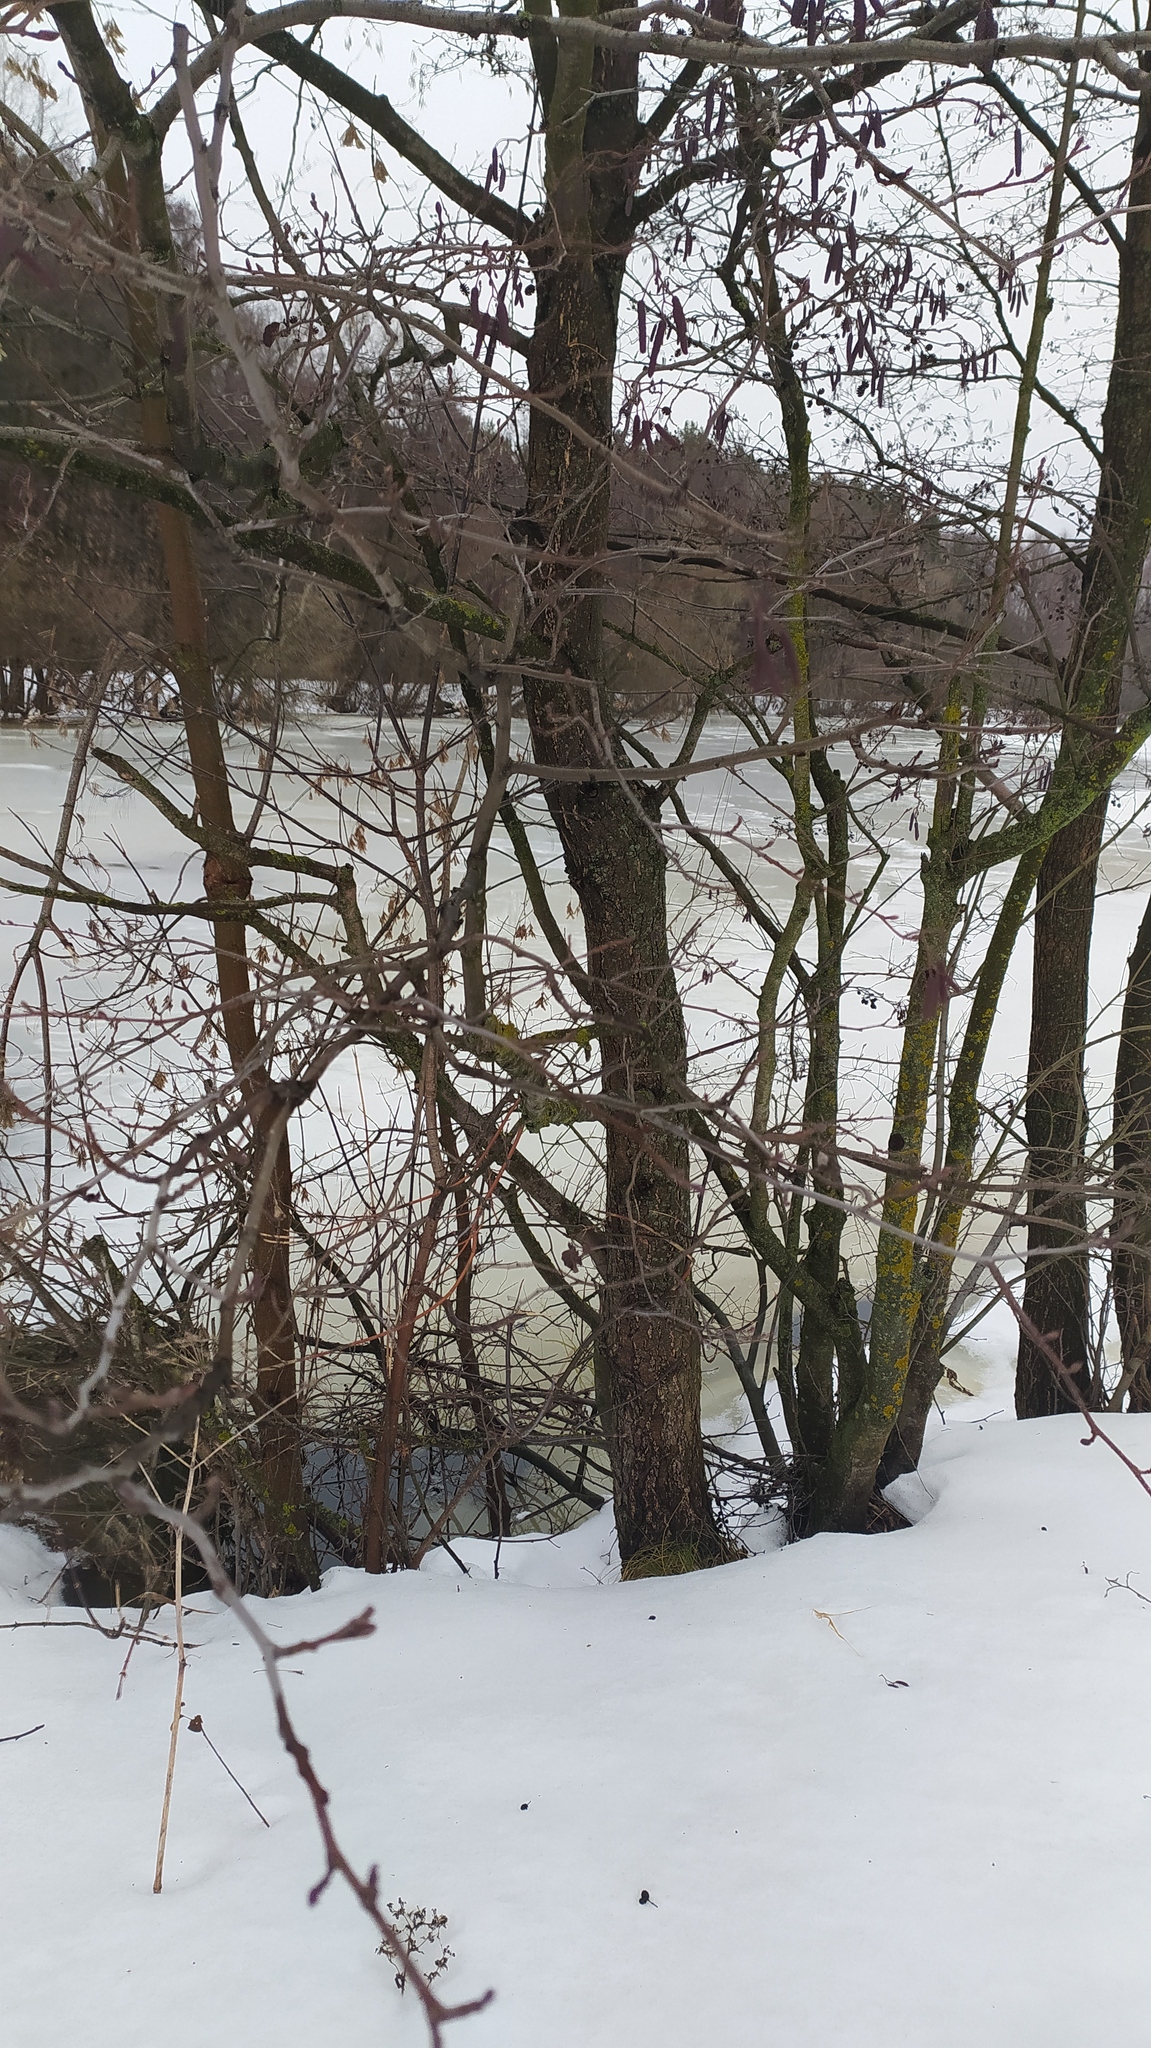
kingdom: Plantae
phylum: Tracheophyta
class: Magnoliopsida
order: Fagales
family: Betulaceae
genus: Alnus
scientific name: Alnus glutinosa
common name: Black alder
